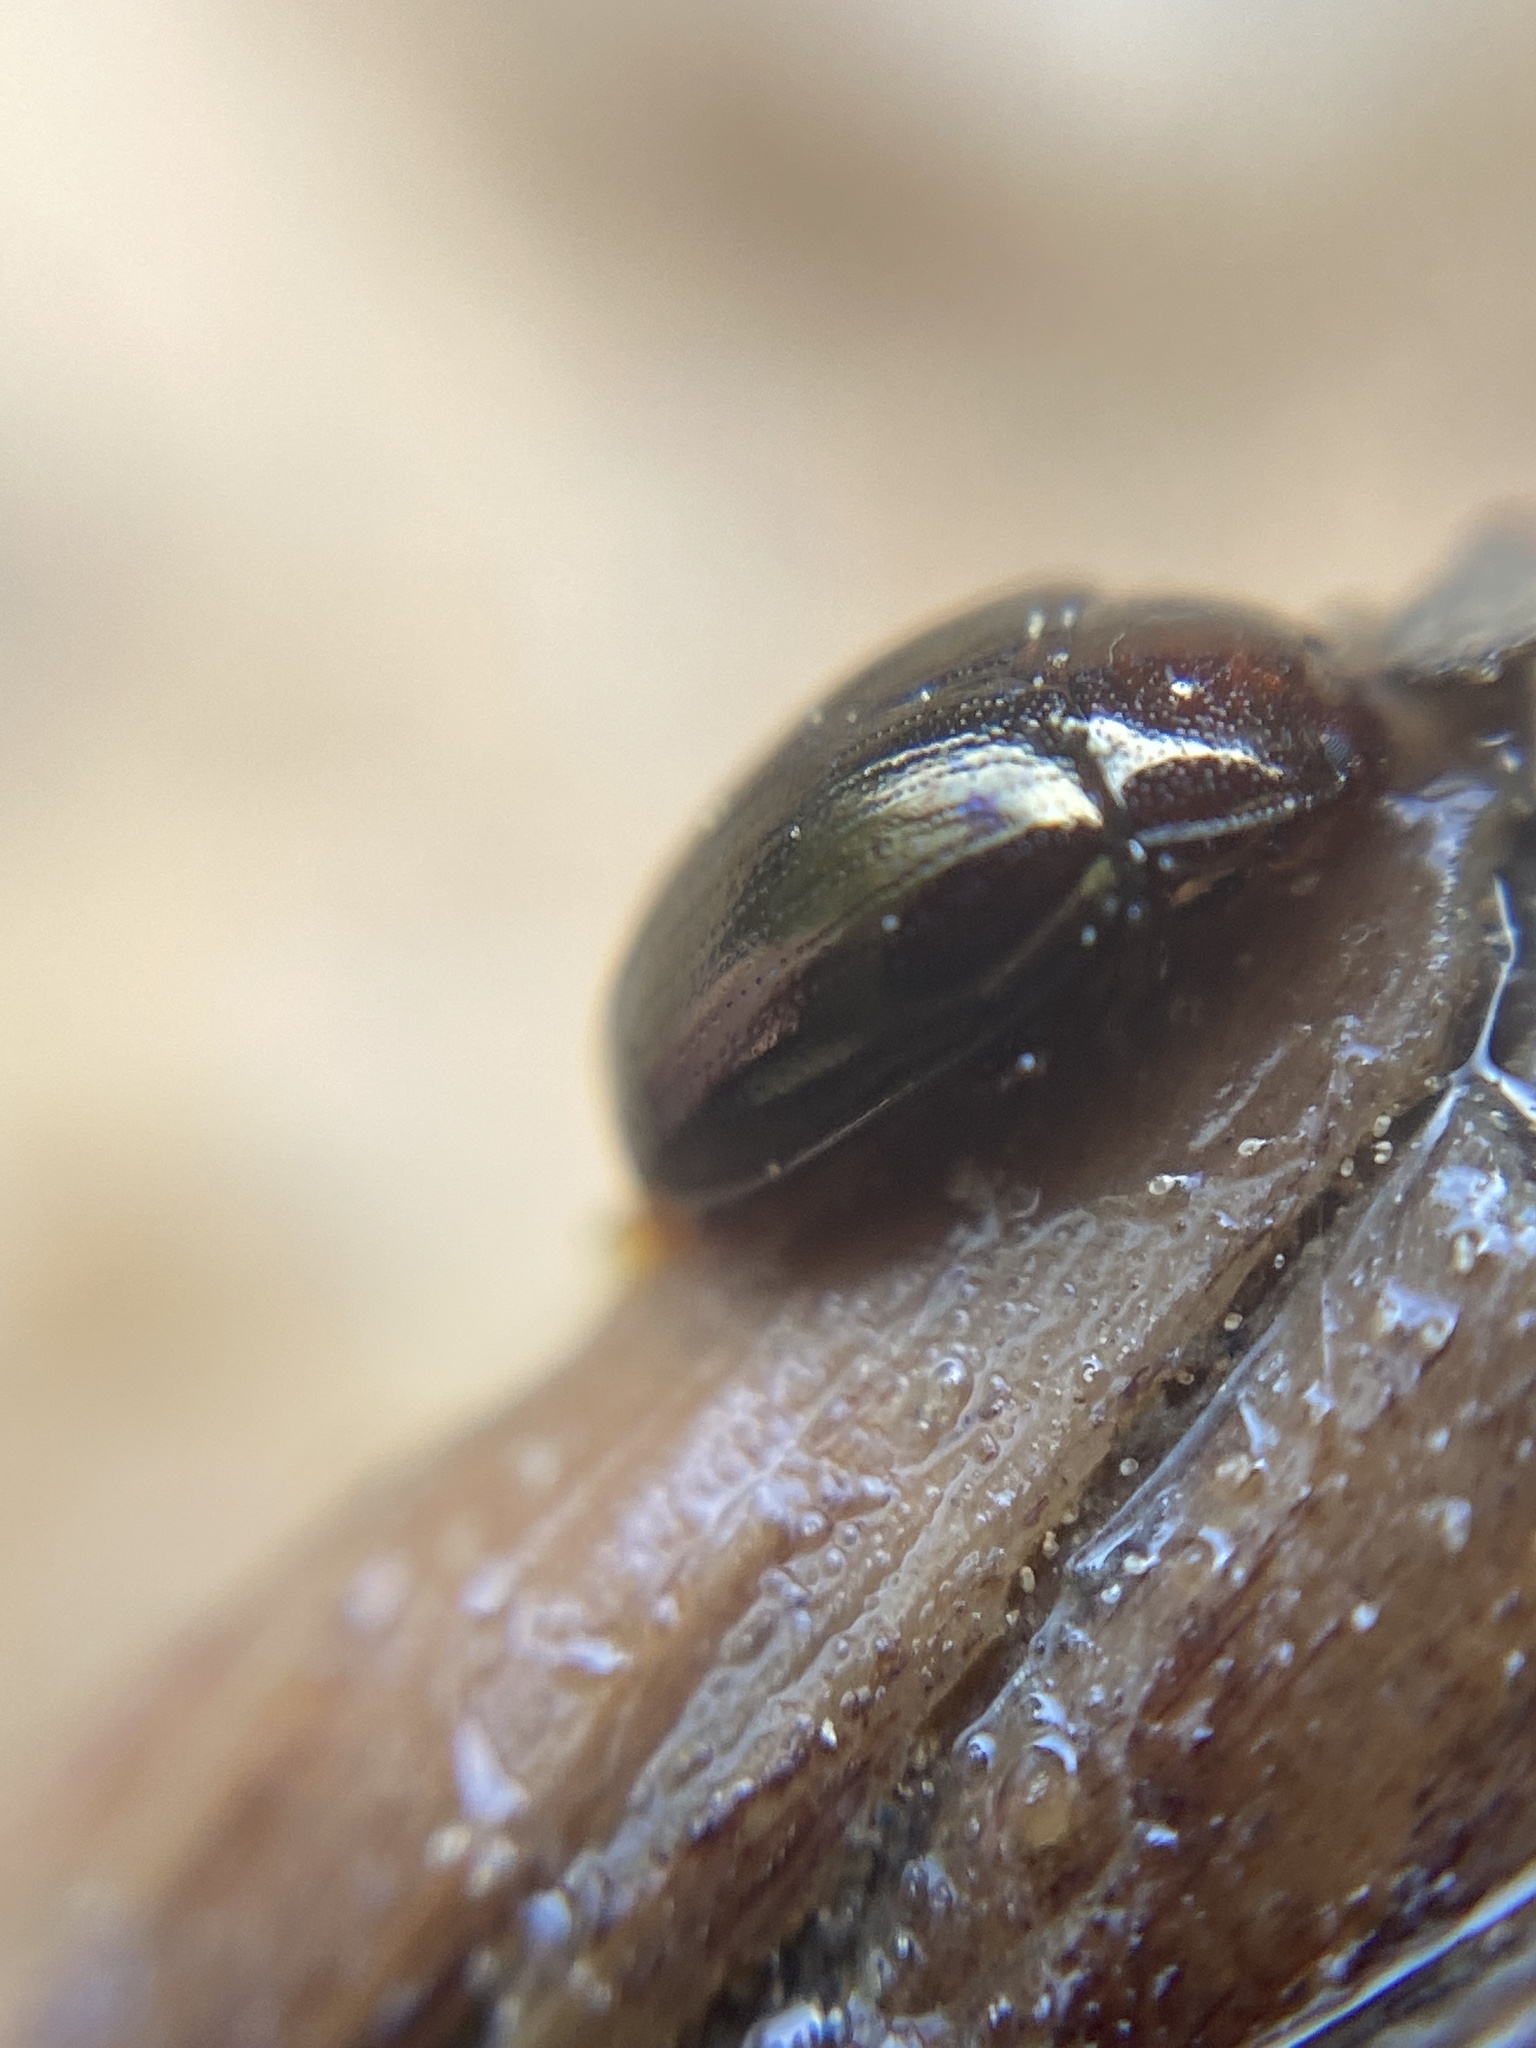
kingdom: Animalia
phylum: Arthropoda
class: Insecta
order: Coleoptera
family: Tenebrionidae
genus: Blapstinus
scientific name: Blapstinus metallicus
